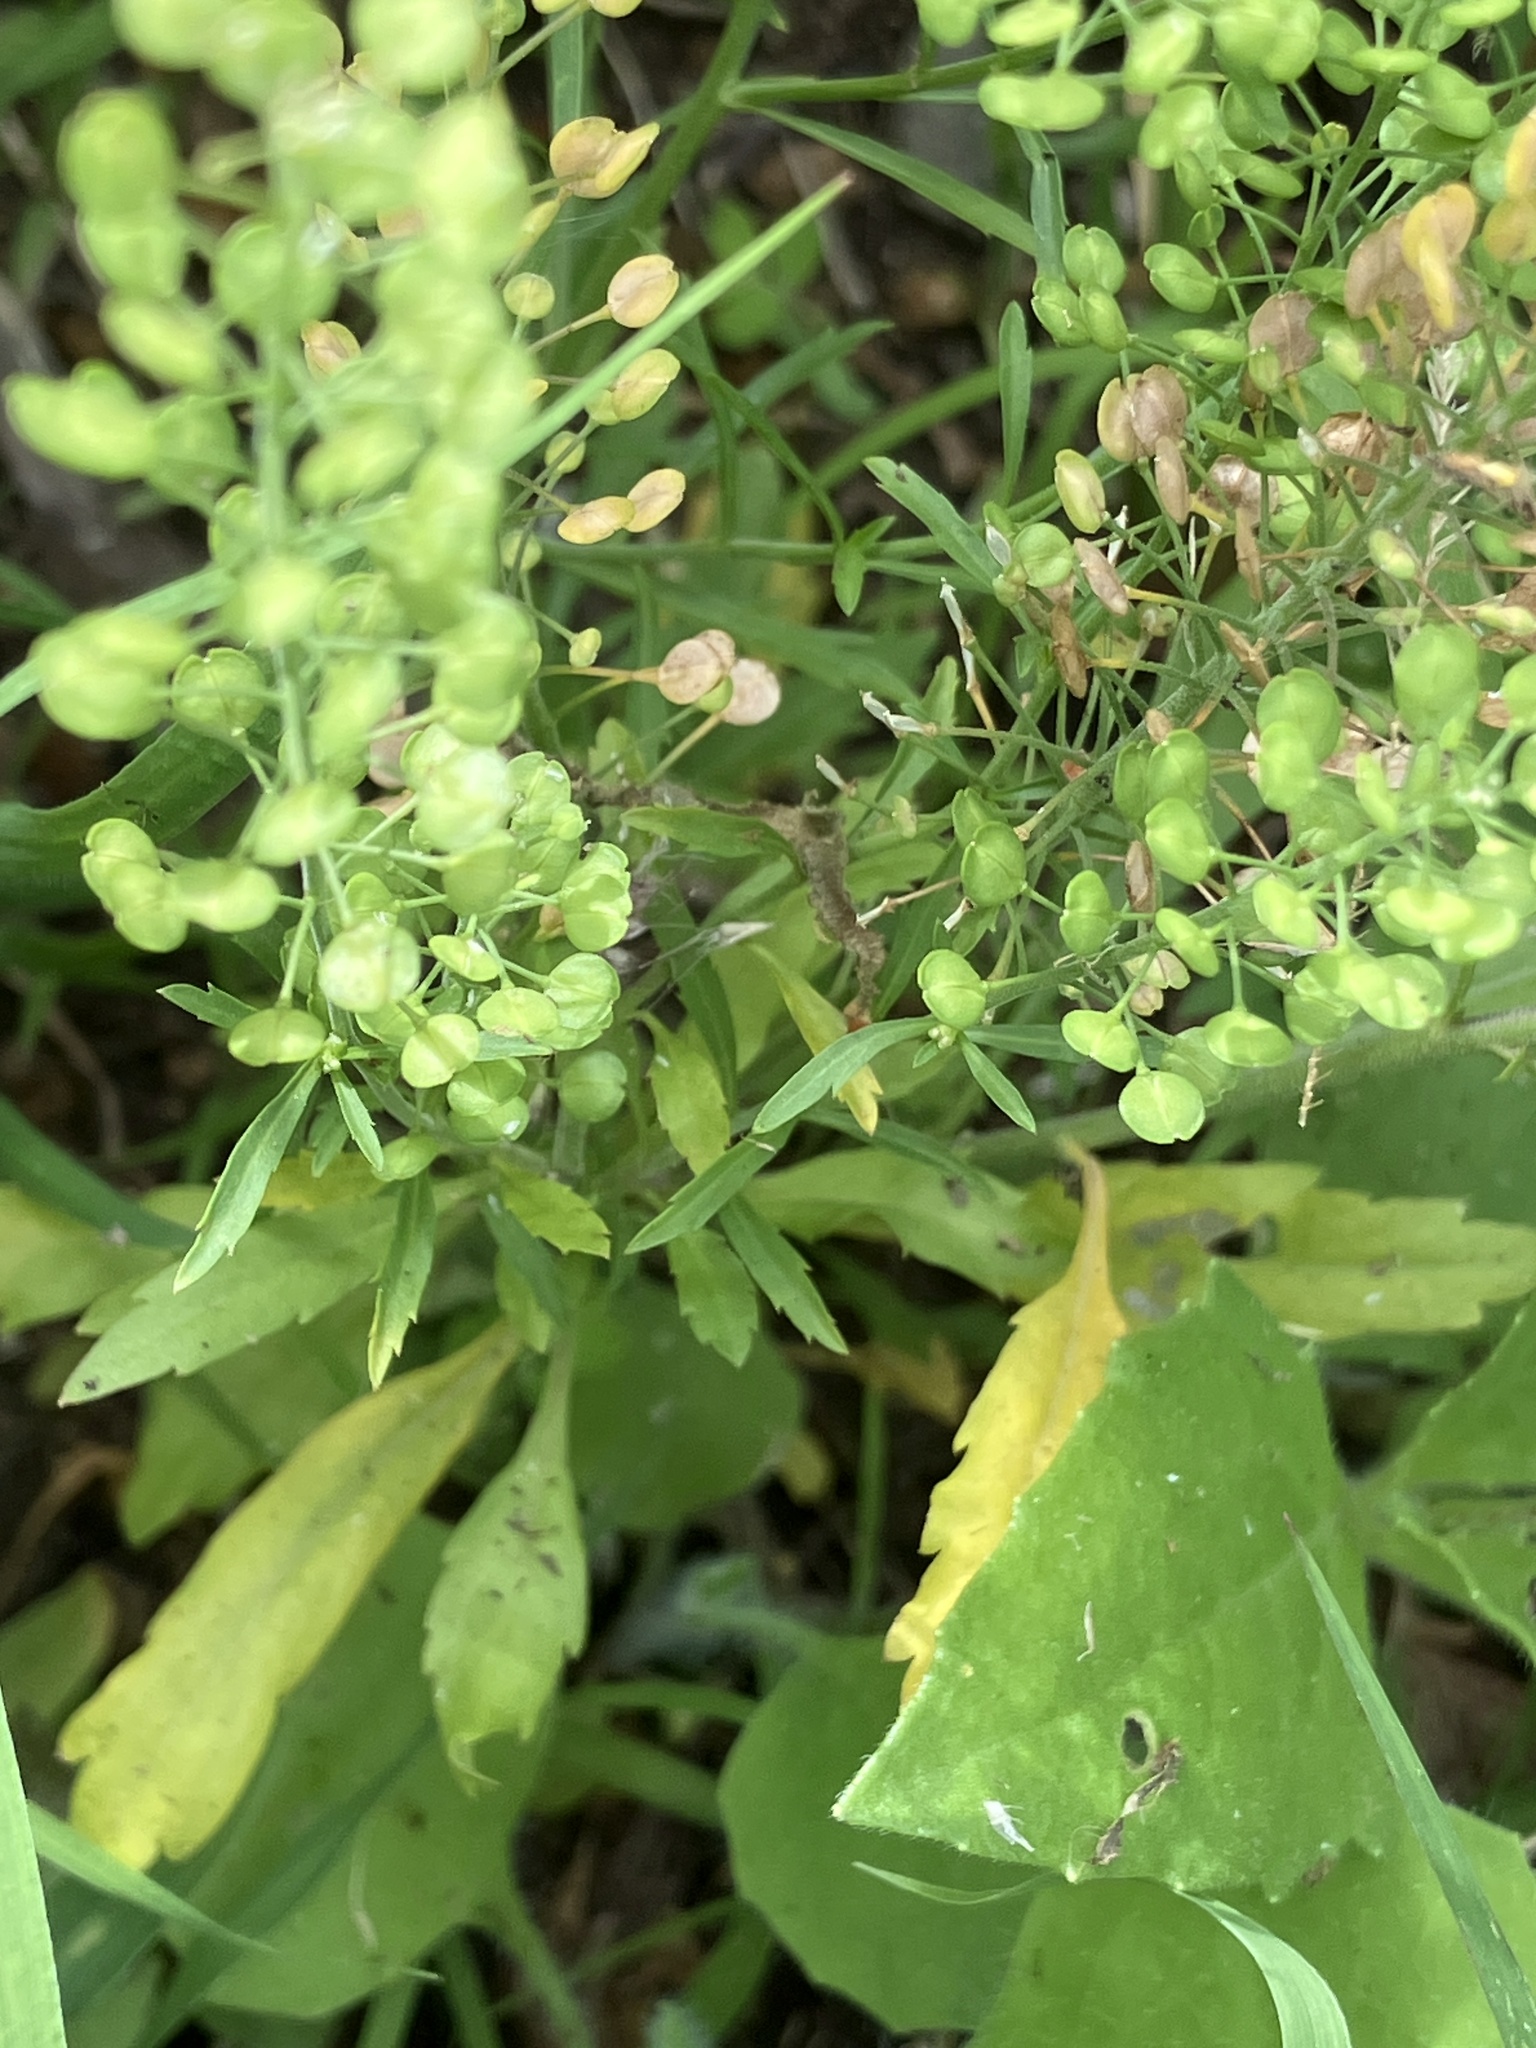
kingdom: Plantae
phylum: Tracheophyta
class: Magnoliopsida
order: Brassicales
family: Brassicaceae
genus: Lepidium
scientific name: Lepidium virginicum
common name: Least pepperwort
